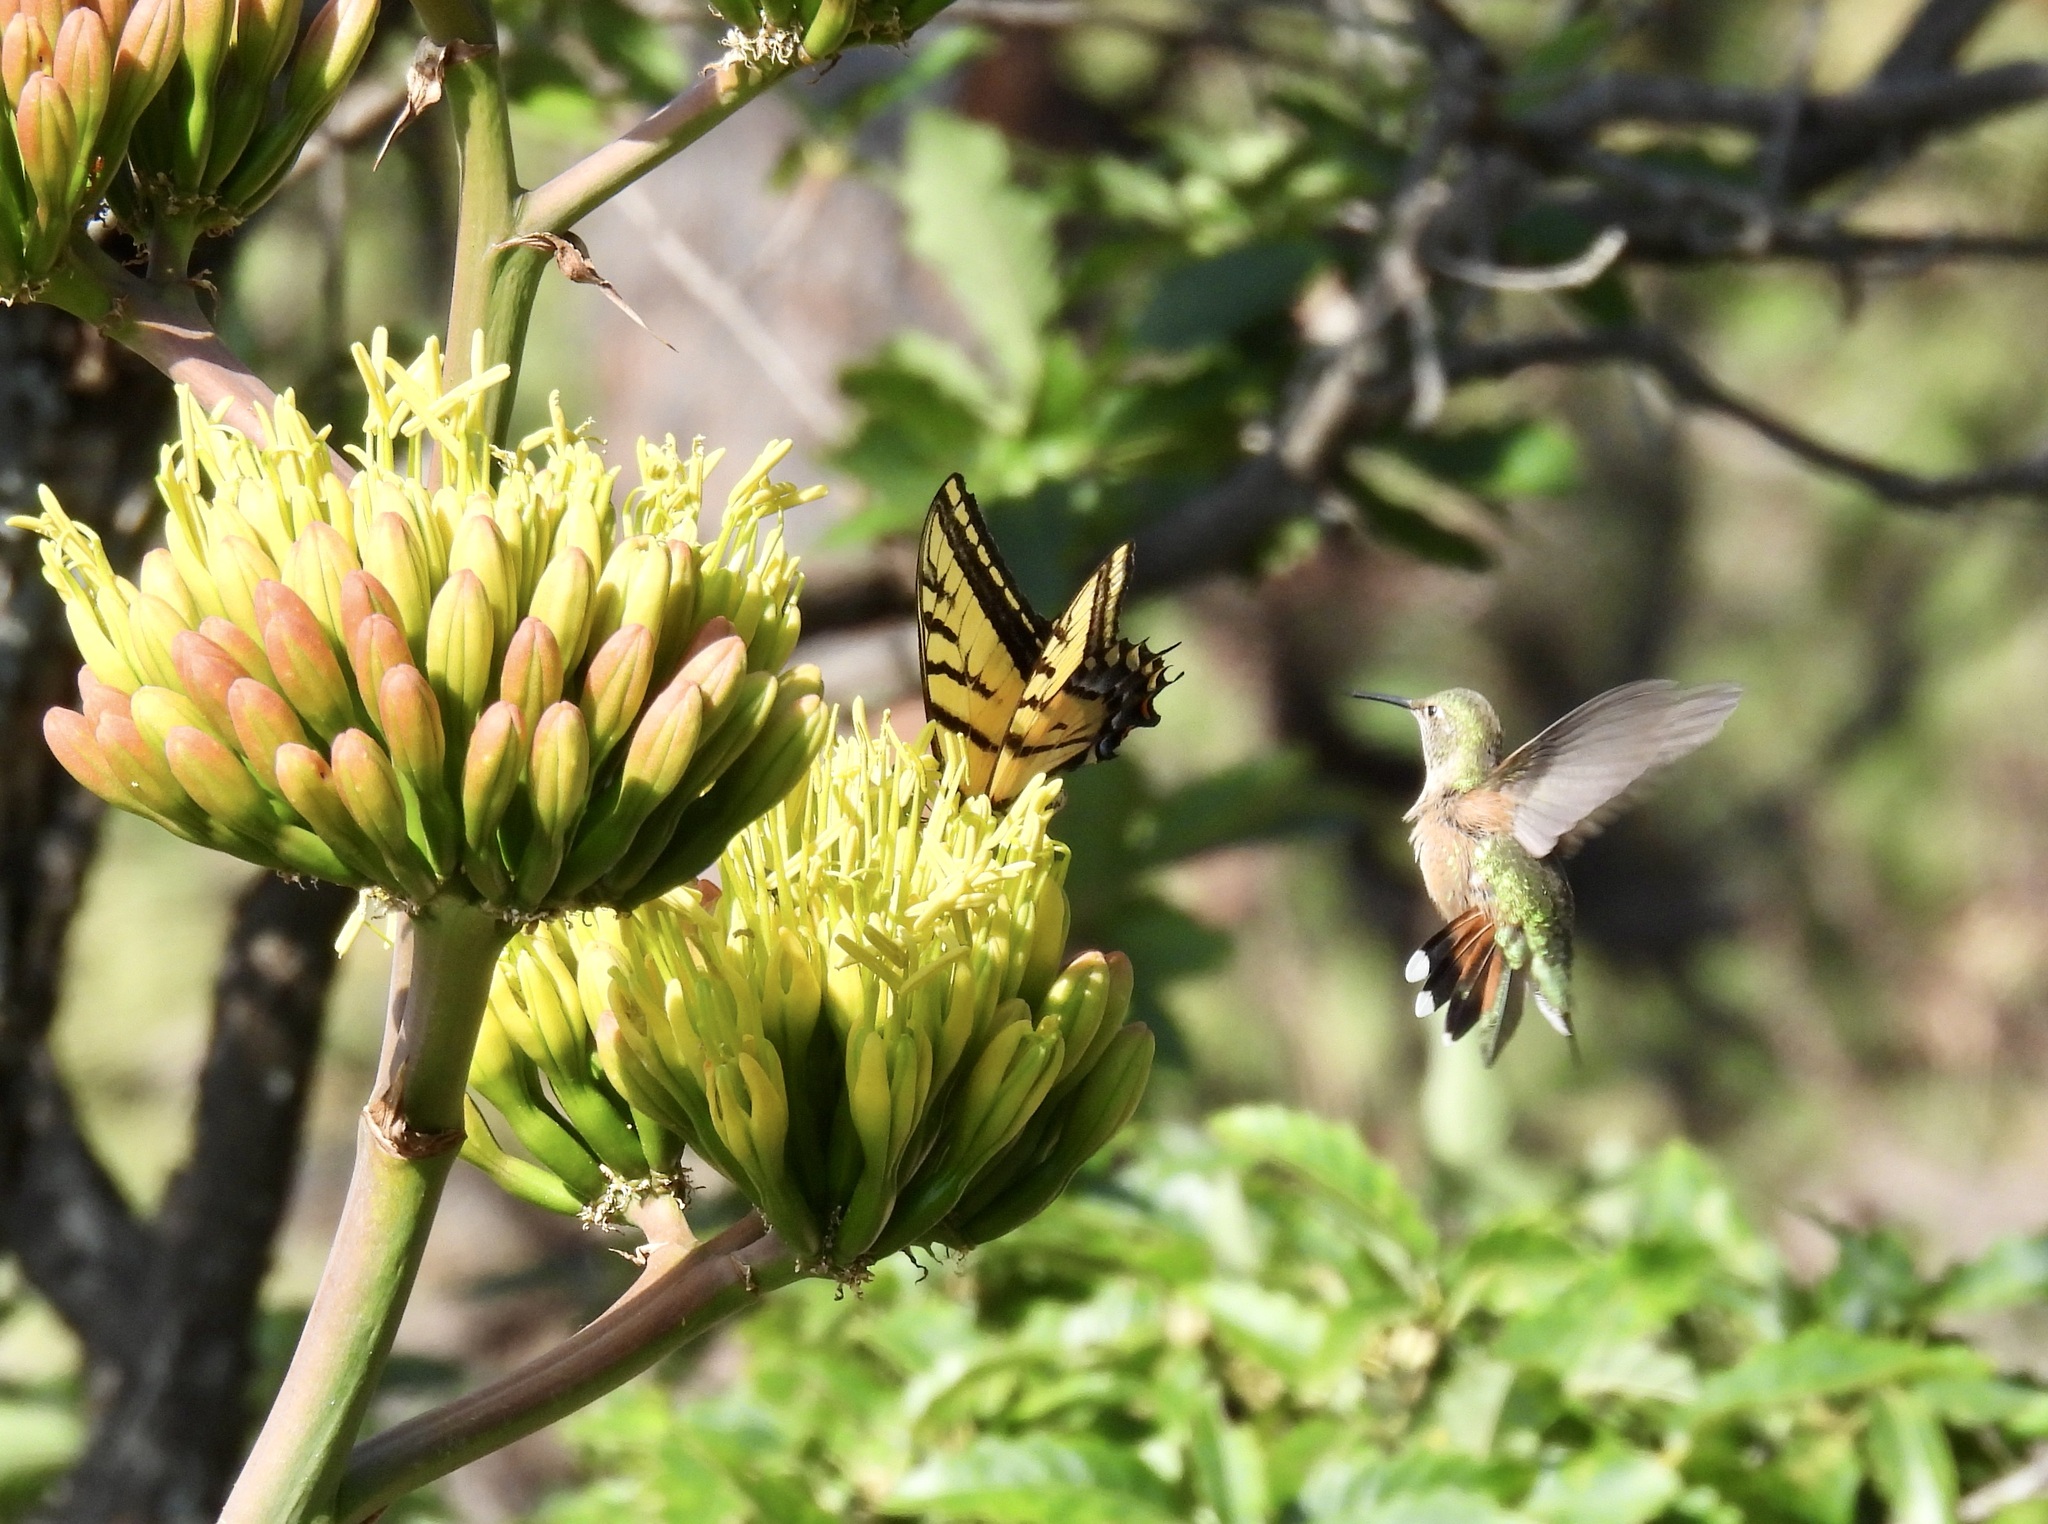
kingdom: Animalia
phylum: Chordata
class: Aves
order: Apodiformes
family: Trochilidae
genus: Selasphorus
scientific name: Selasphorus platycercus
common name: Broad-tailed hummingbird
